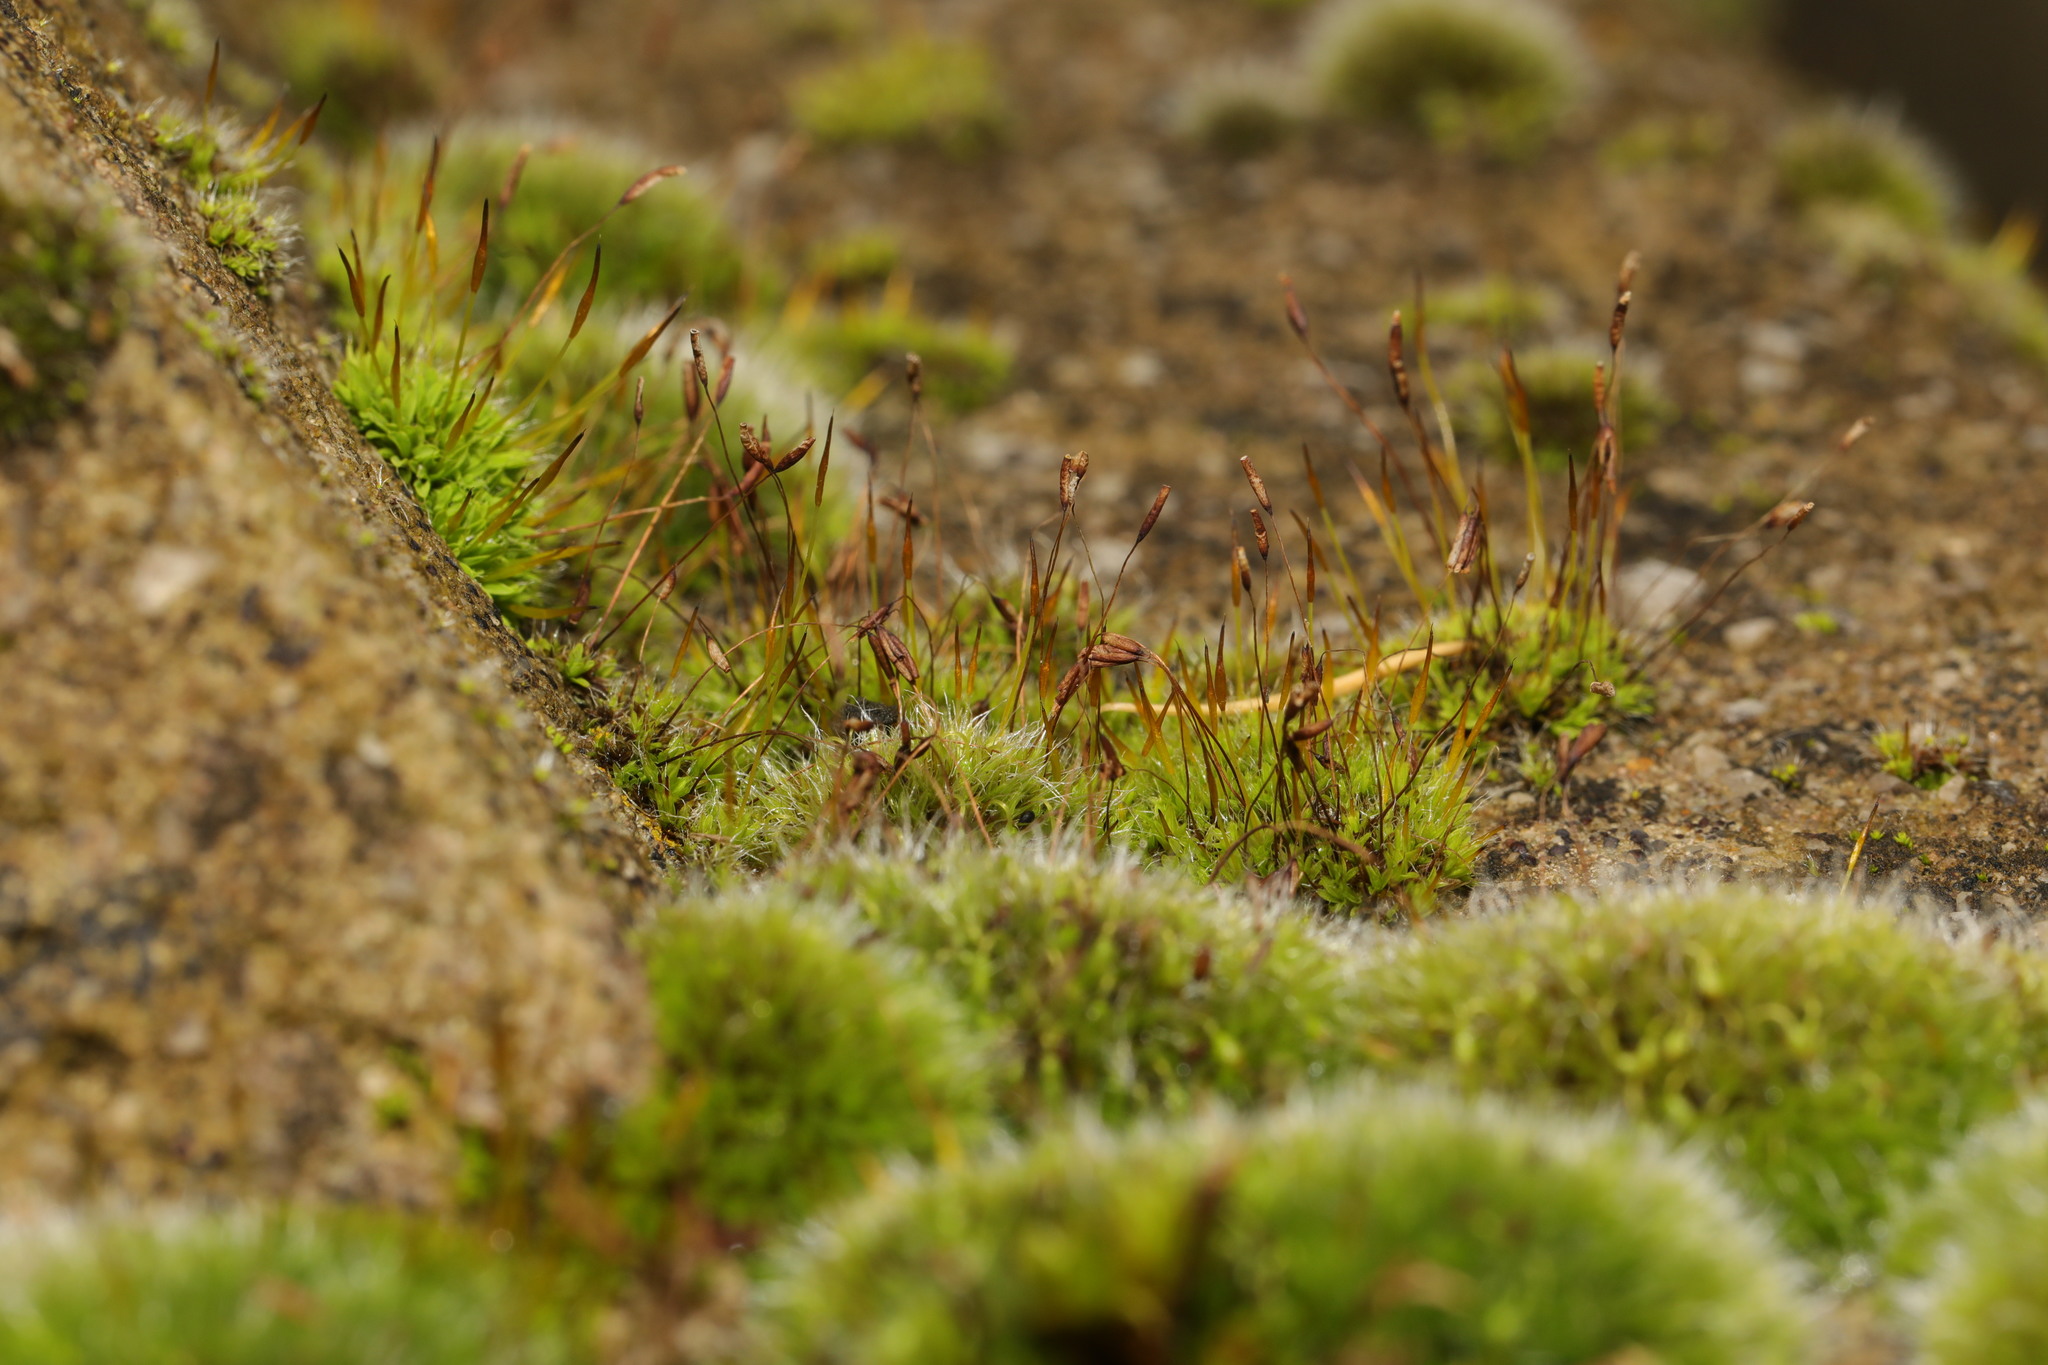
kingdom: Plantae
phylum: Bryophyta
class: Bryopsida
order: Pottiales
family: Pottiaceae
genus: Tortula
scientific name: Tortula muralis
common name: Wall screw-moss
